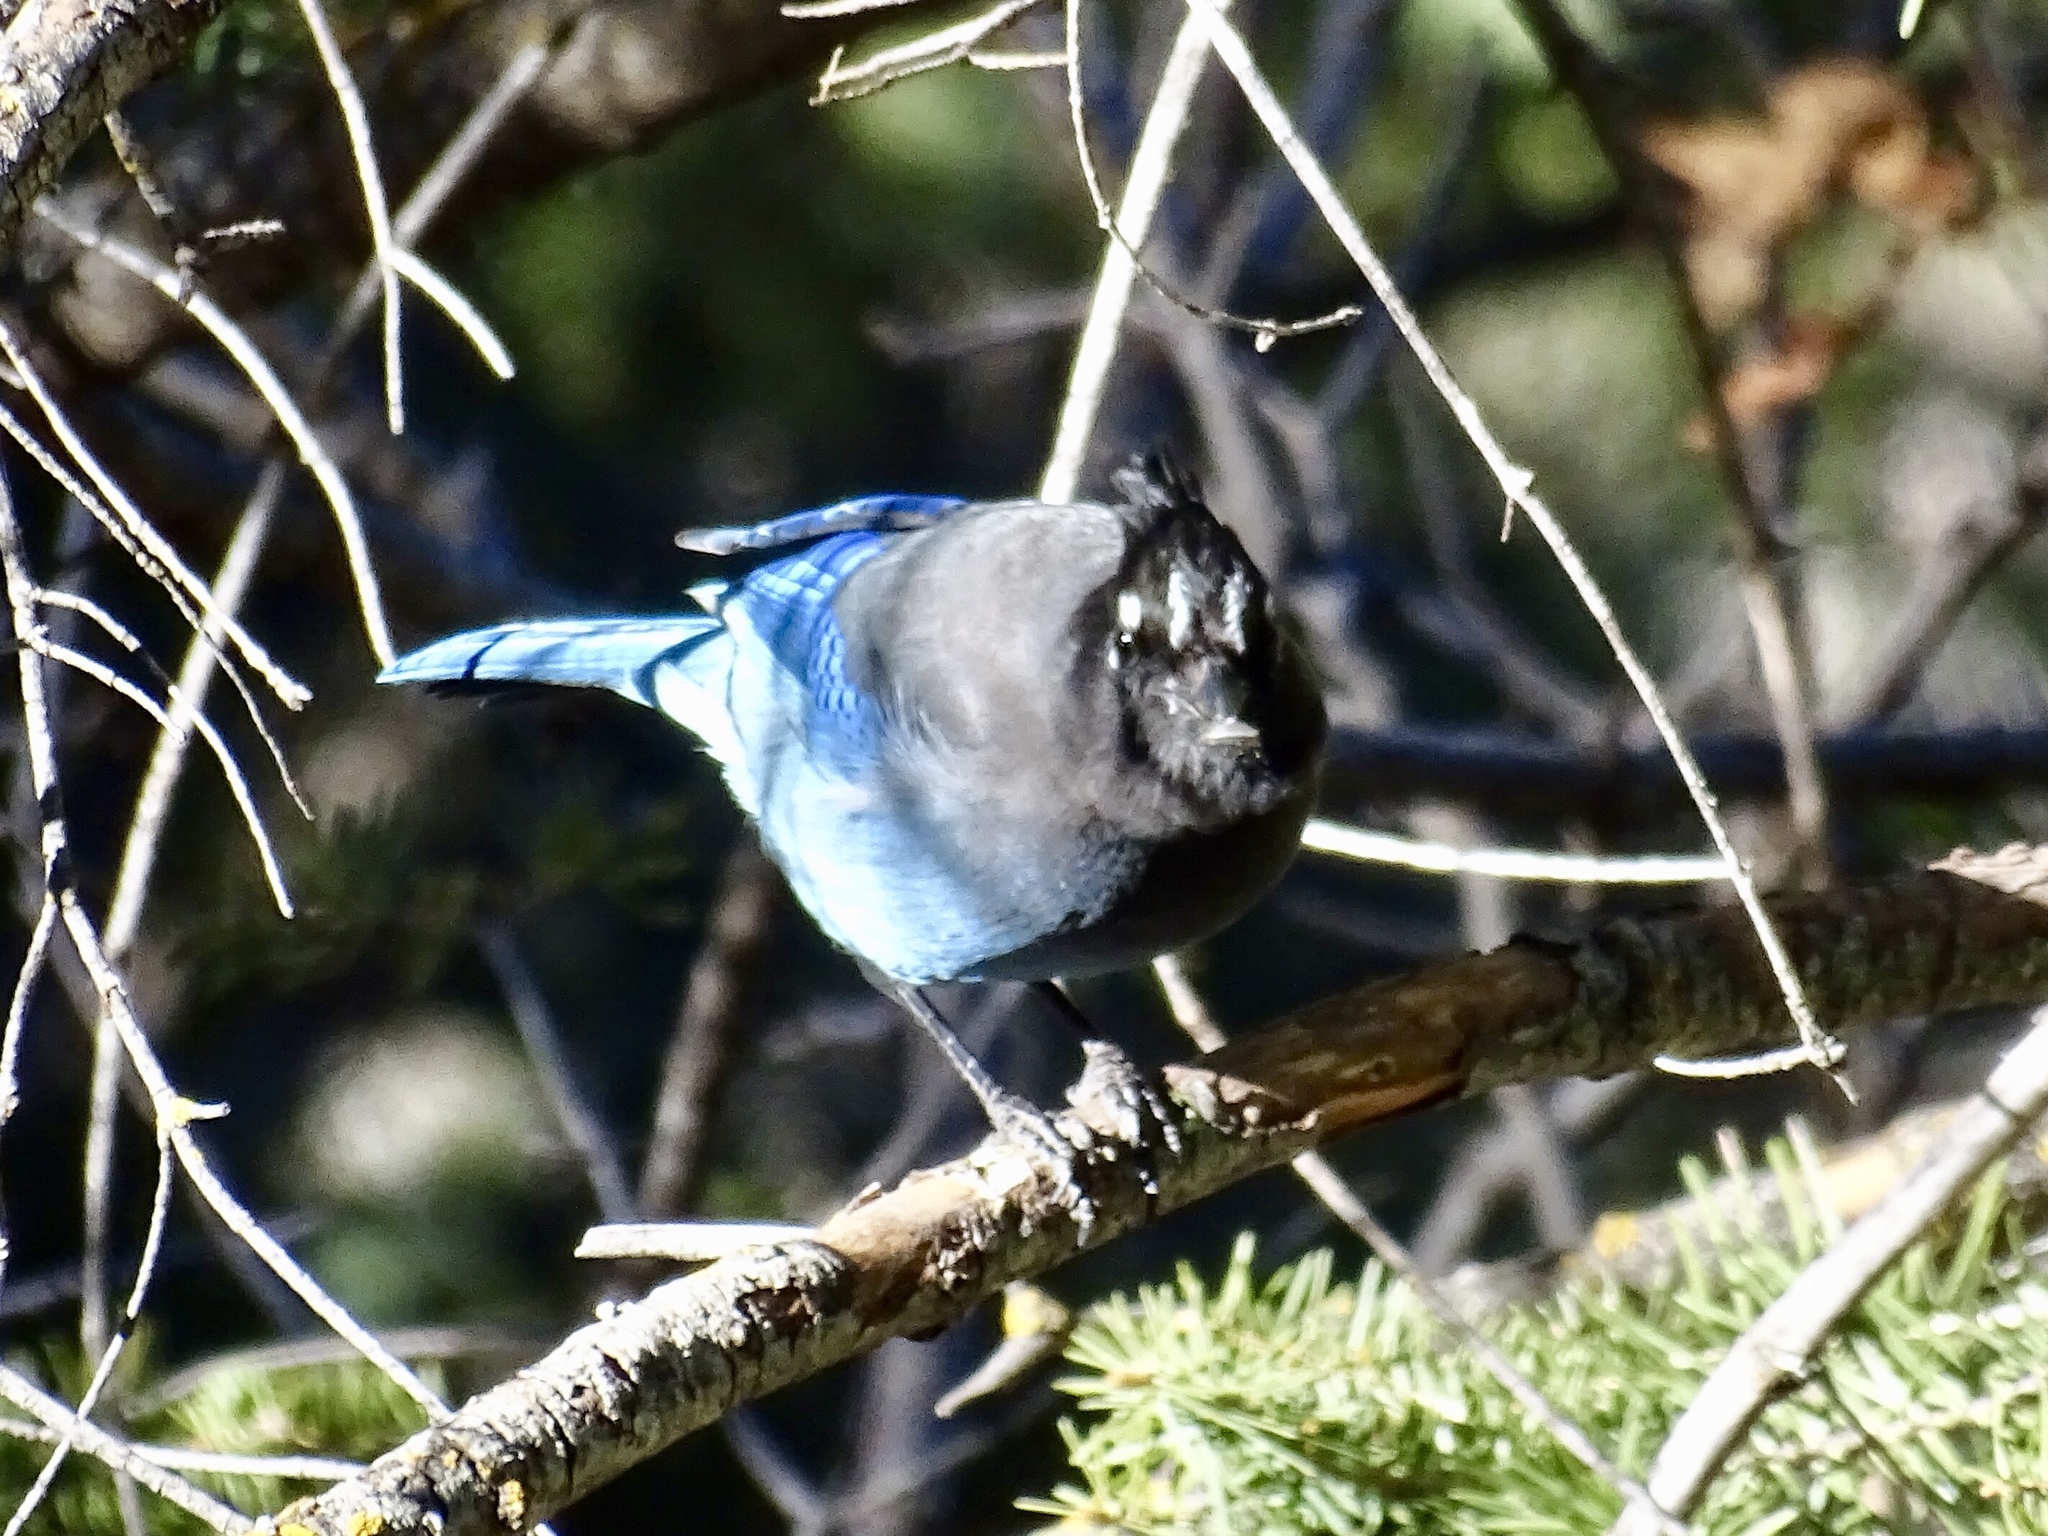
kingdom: Animalia
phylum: Chordata
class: Aves
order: Passeriformes
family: Corvidae
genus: Cyanocitta
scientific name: Cyanocitta stelleri
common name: Steller's jay
